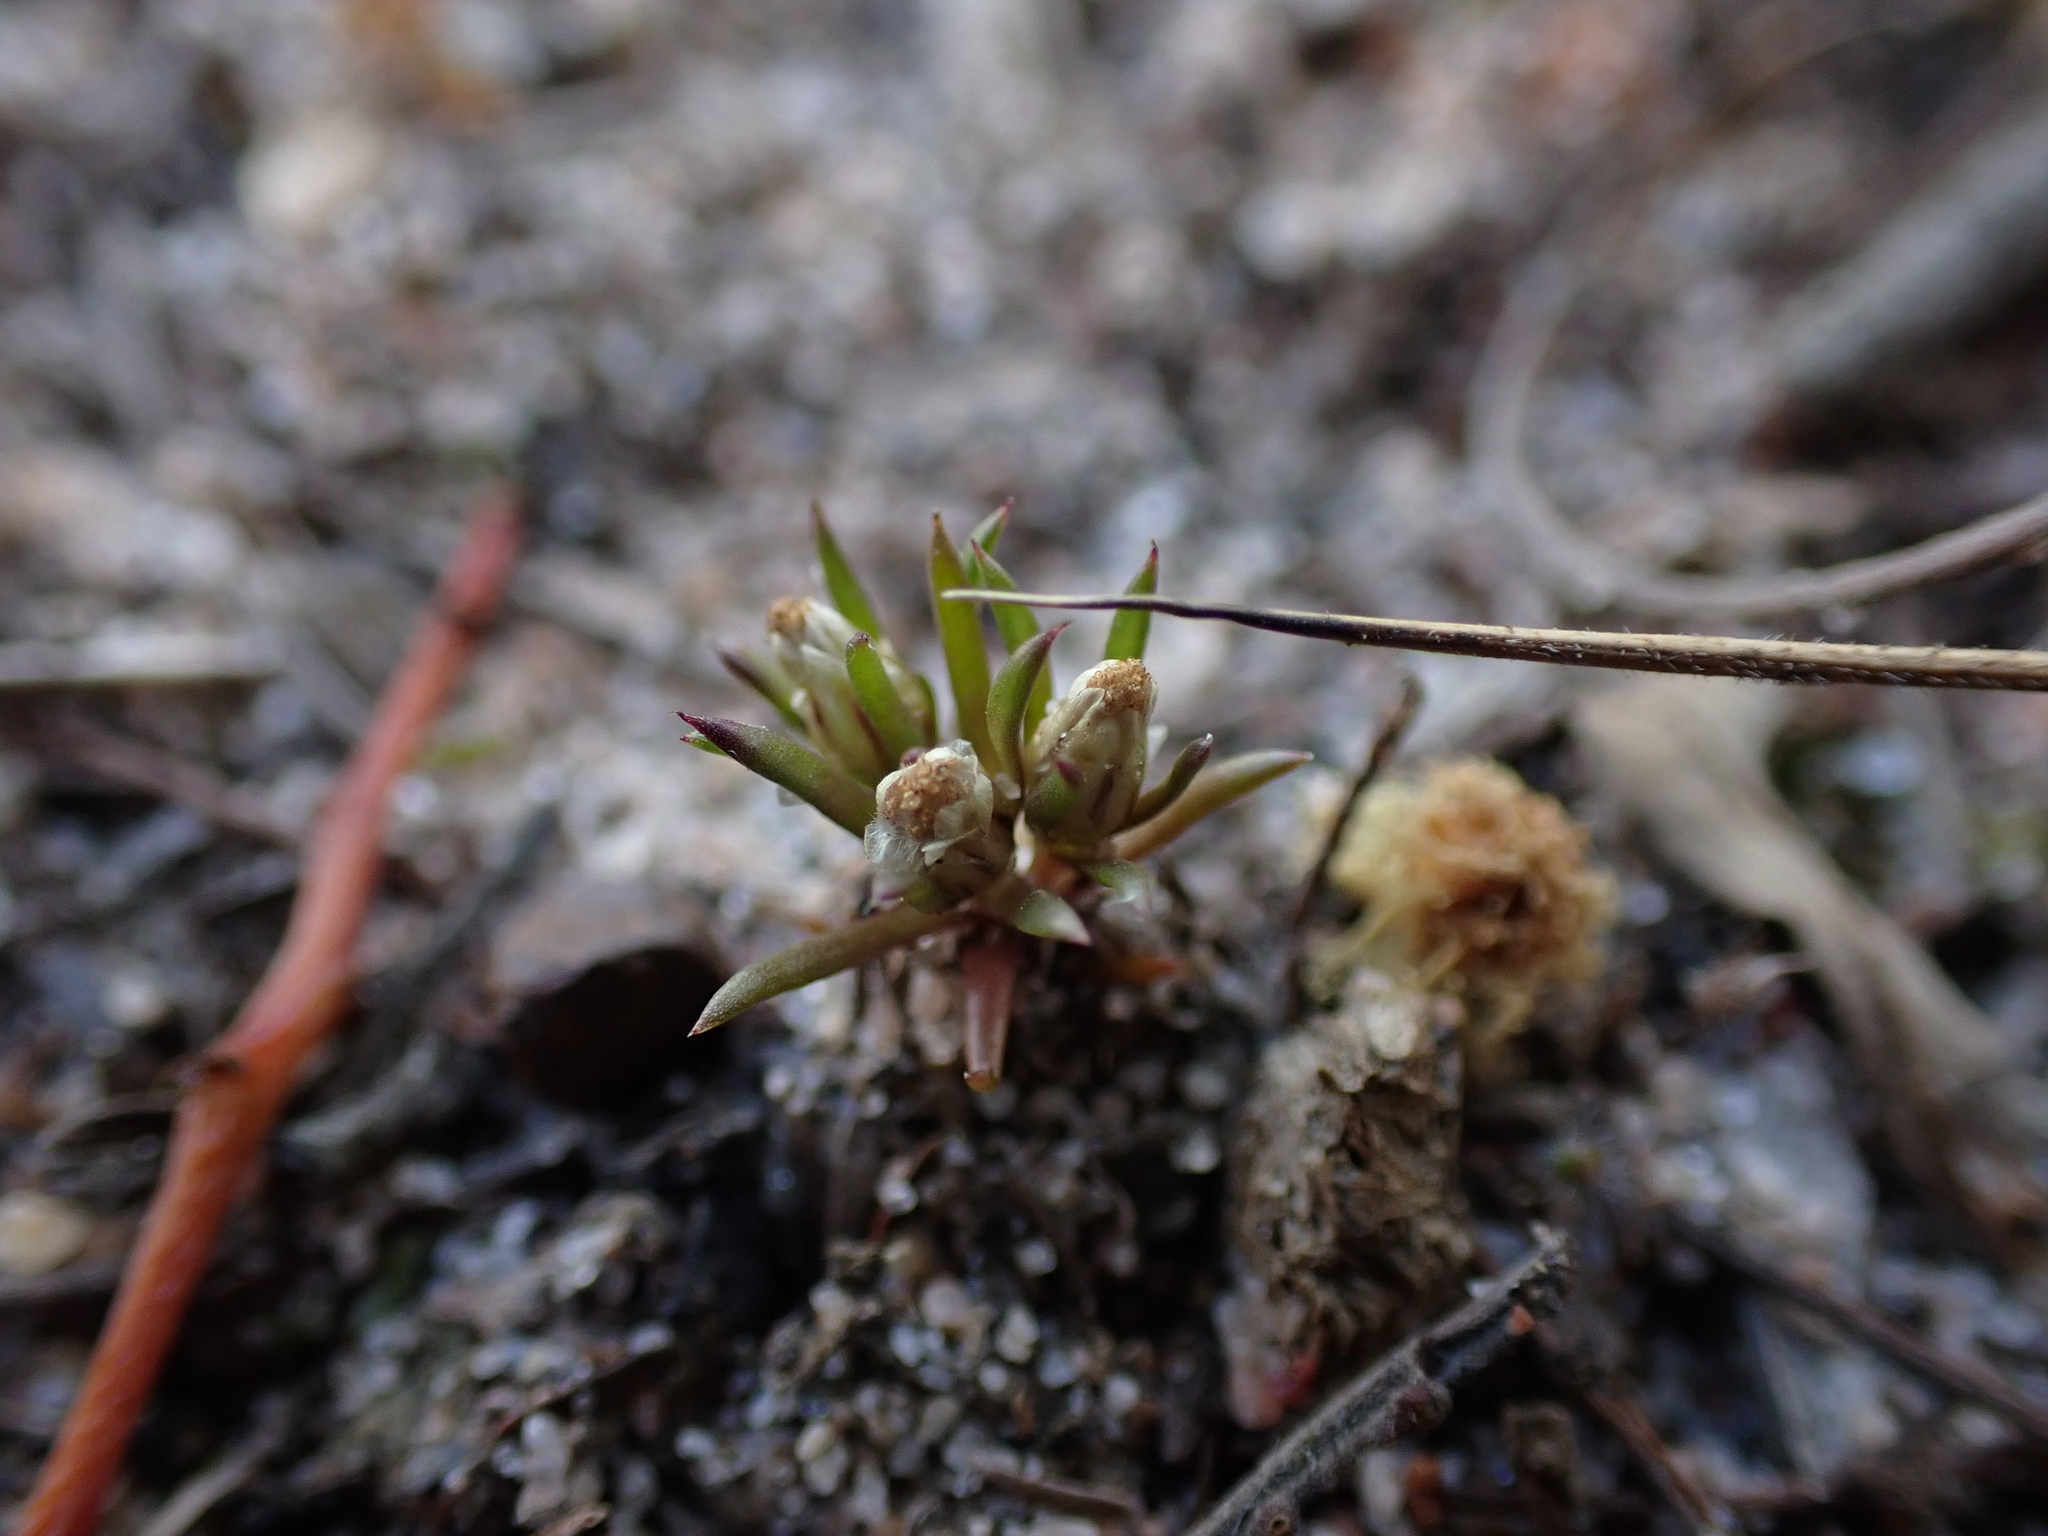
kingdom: Plantae
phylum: Tracheophyta
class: Magnoliopsida
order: Asterales
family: Asteraceae
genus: Hyalosperma
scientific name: Hyalosperma demissum
